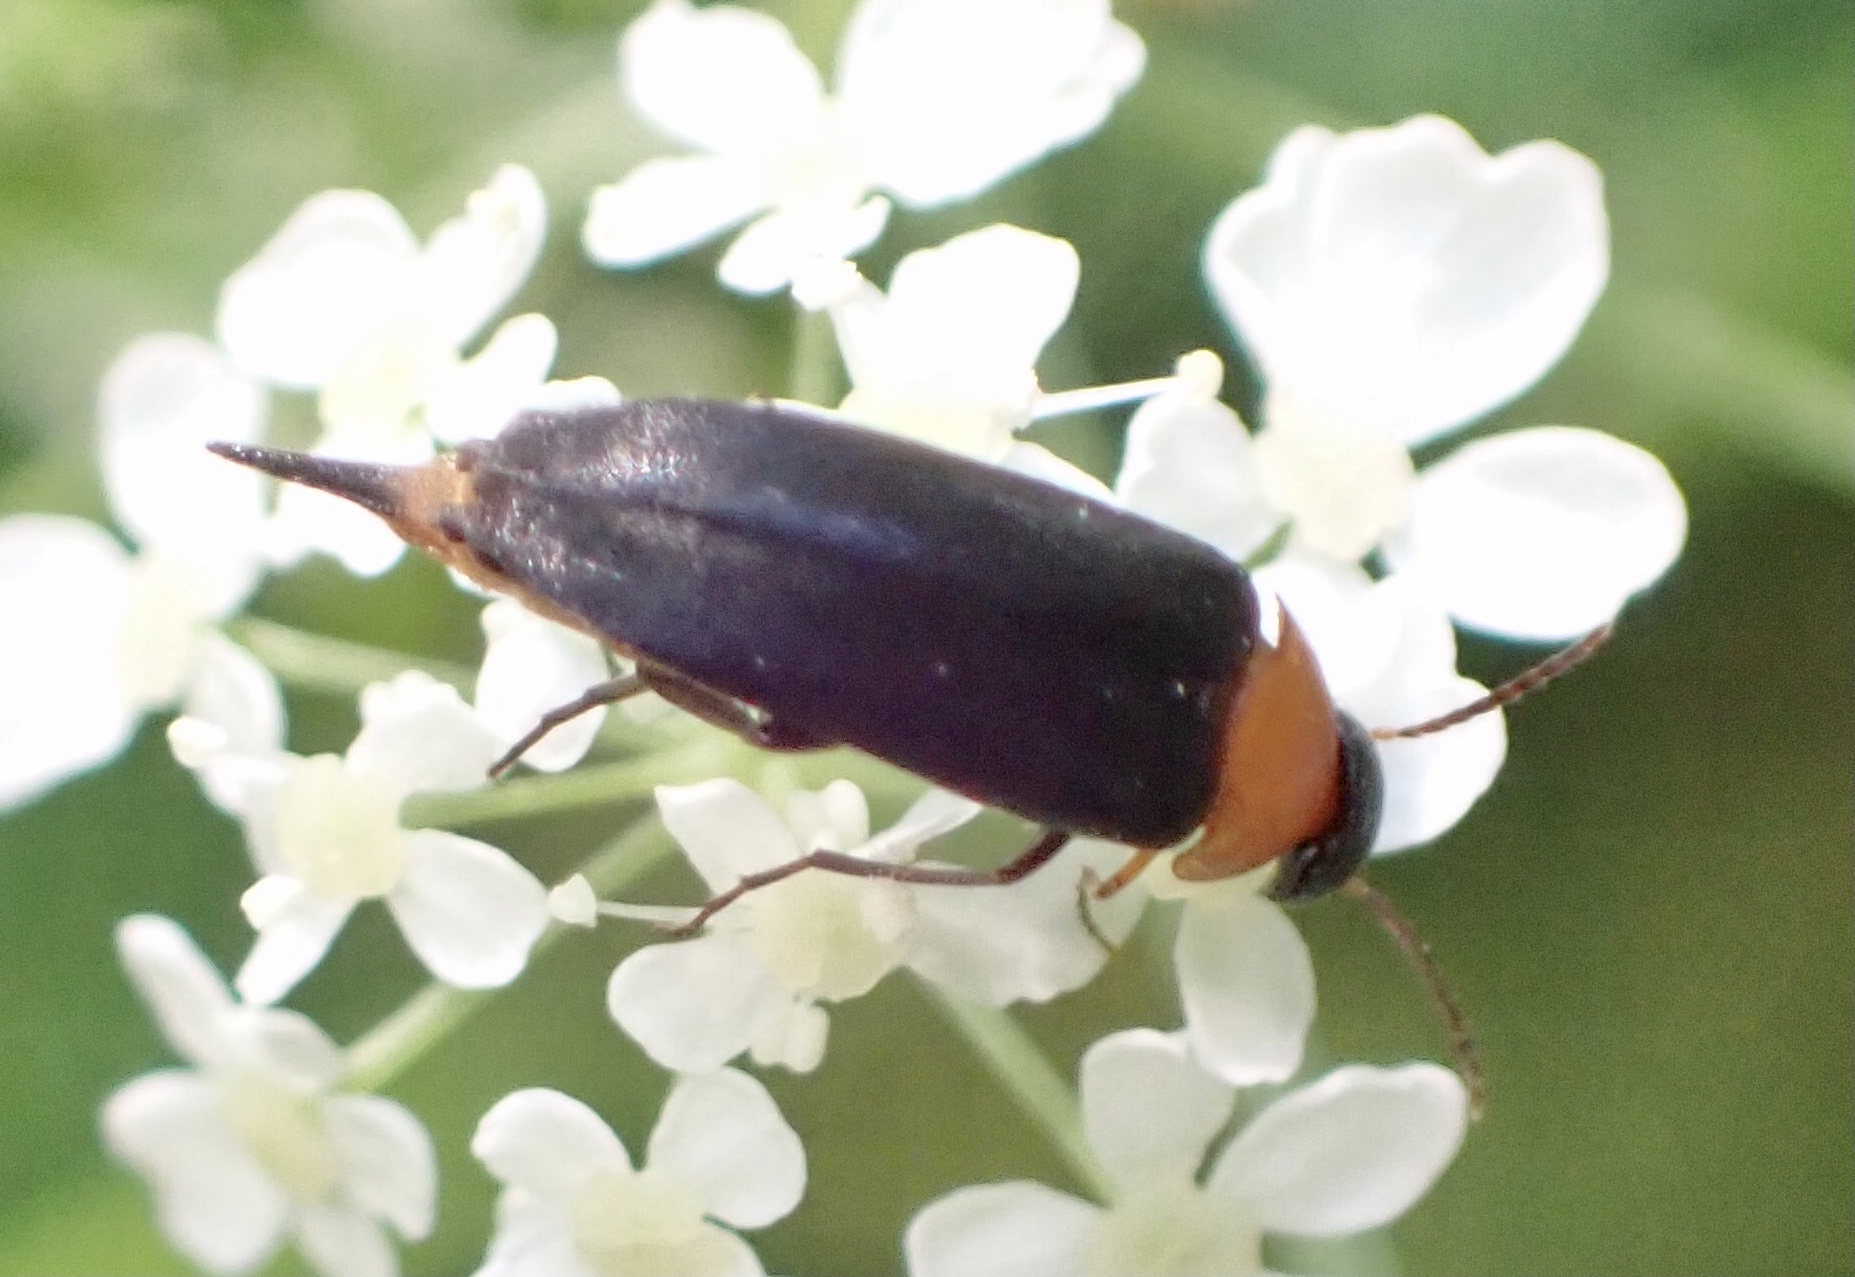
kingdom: Animalia
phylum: Arthropoda
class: Insecta
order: Coleoptera
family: Mordellidae
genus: Mordellochroa
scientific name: Mordellochroa abdominalis
